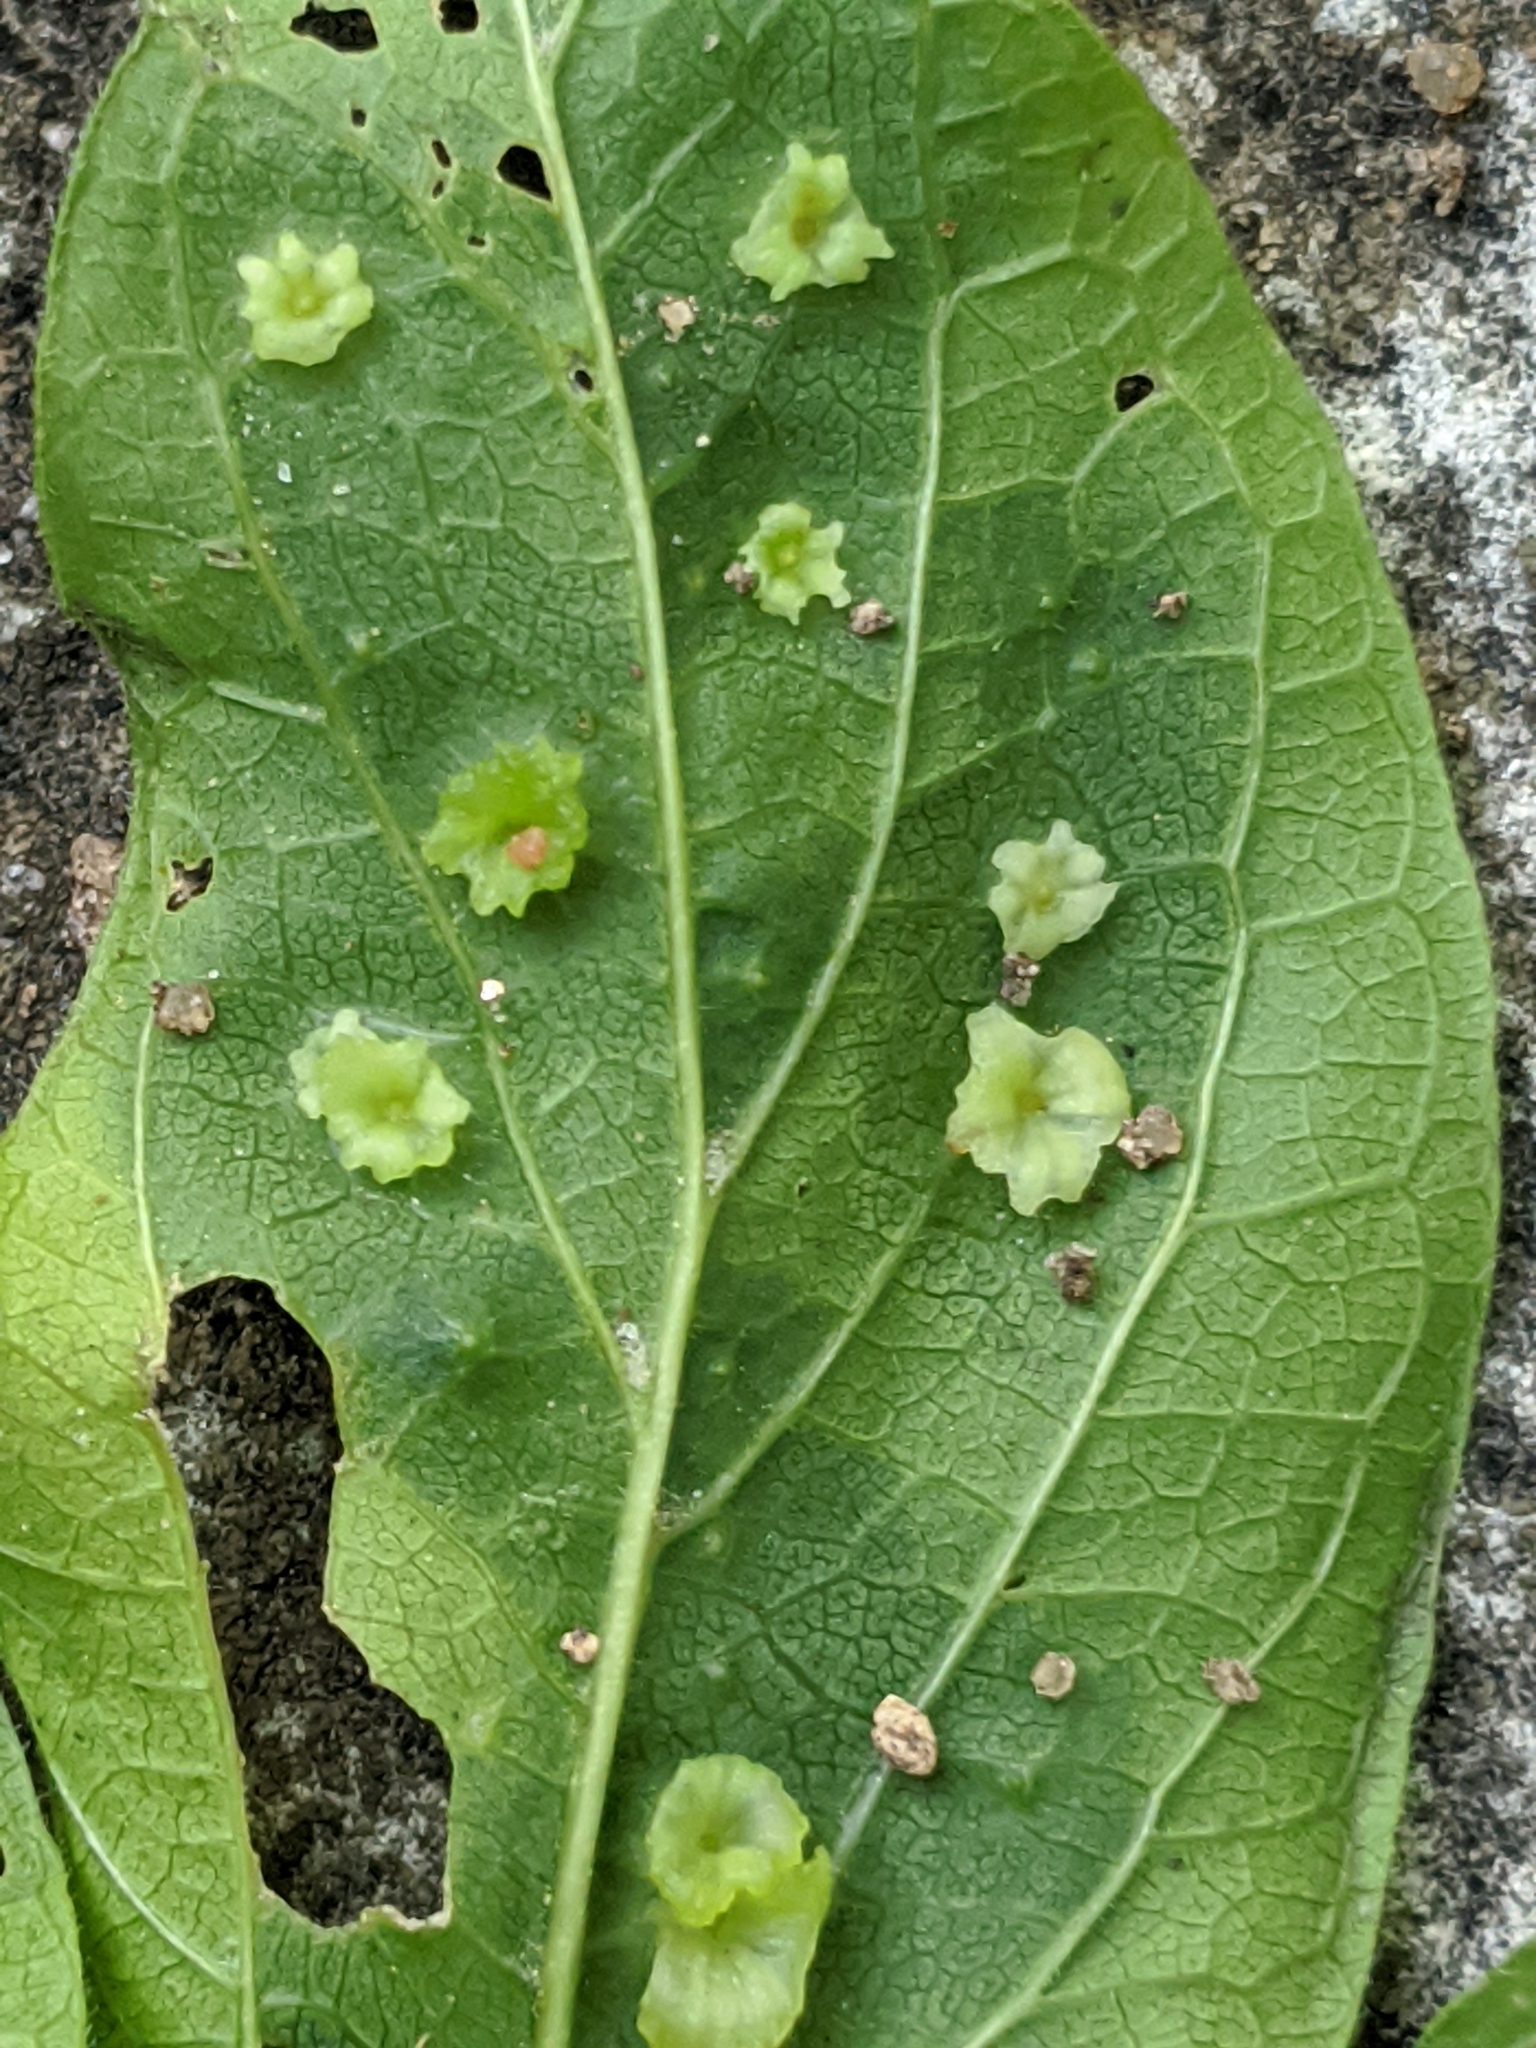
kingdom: Animalia
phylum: Arthropoda
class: Insecta
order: Hemiptera
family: Aphalaridae
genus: Pachypsylla
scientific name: Pachypsylla celtidisasterisca
